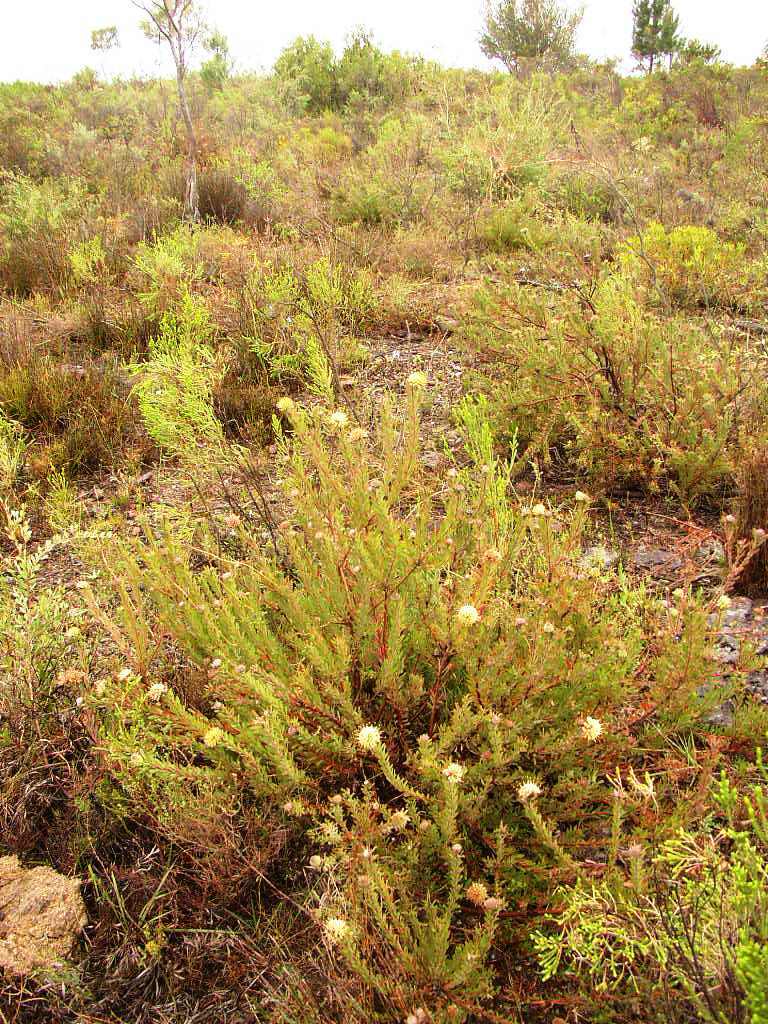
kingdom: Plantae
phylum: Tracheophyta
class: Magnoliopsida
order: Proteales
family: Proteaceae
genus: Leucospermum
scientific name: Leucospermum calligerum
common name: Arid pincushion
